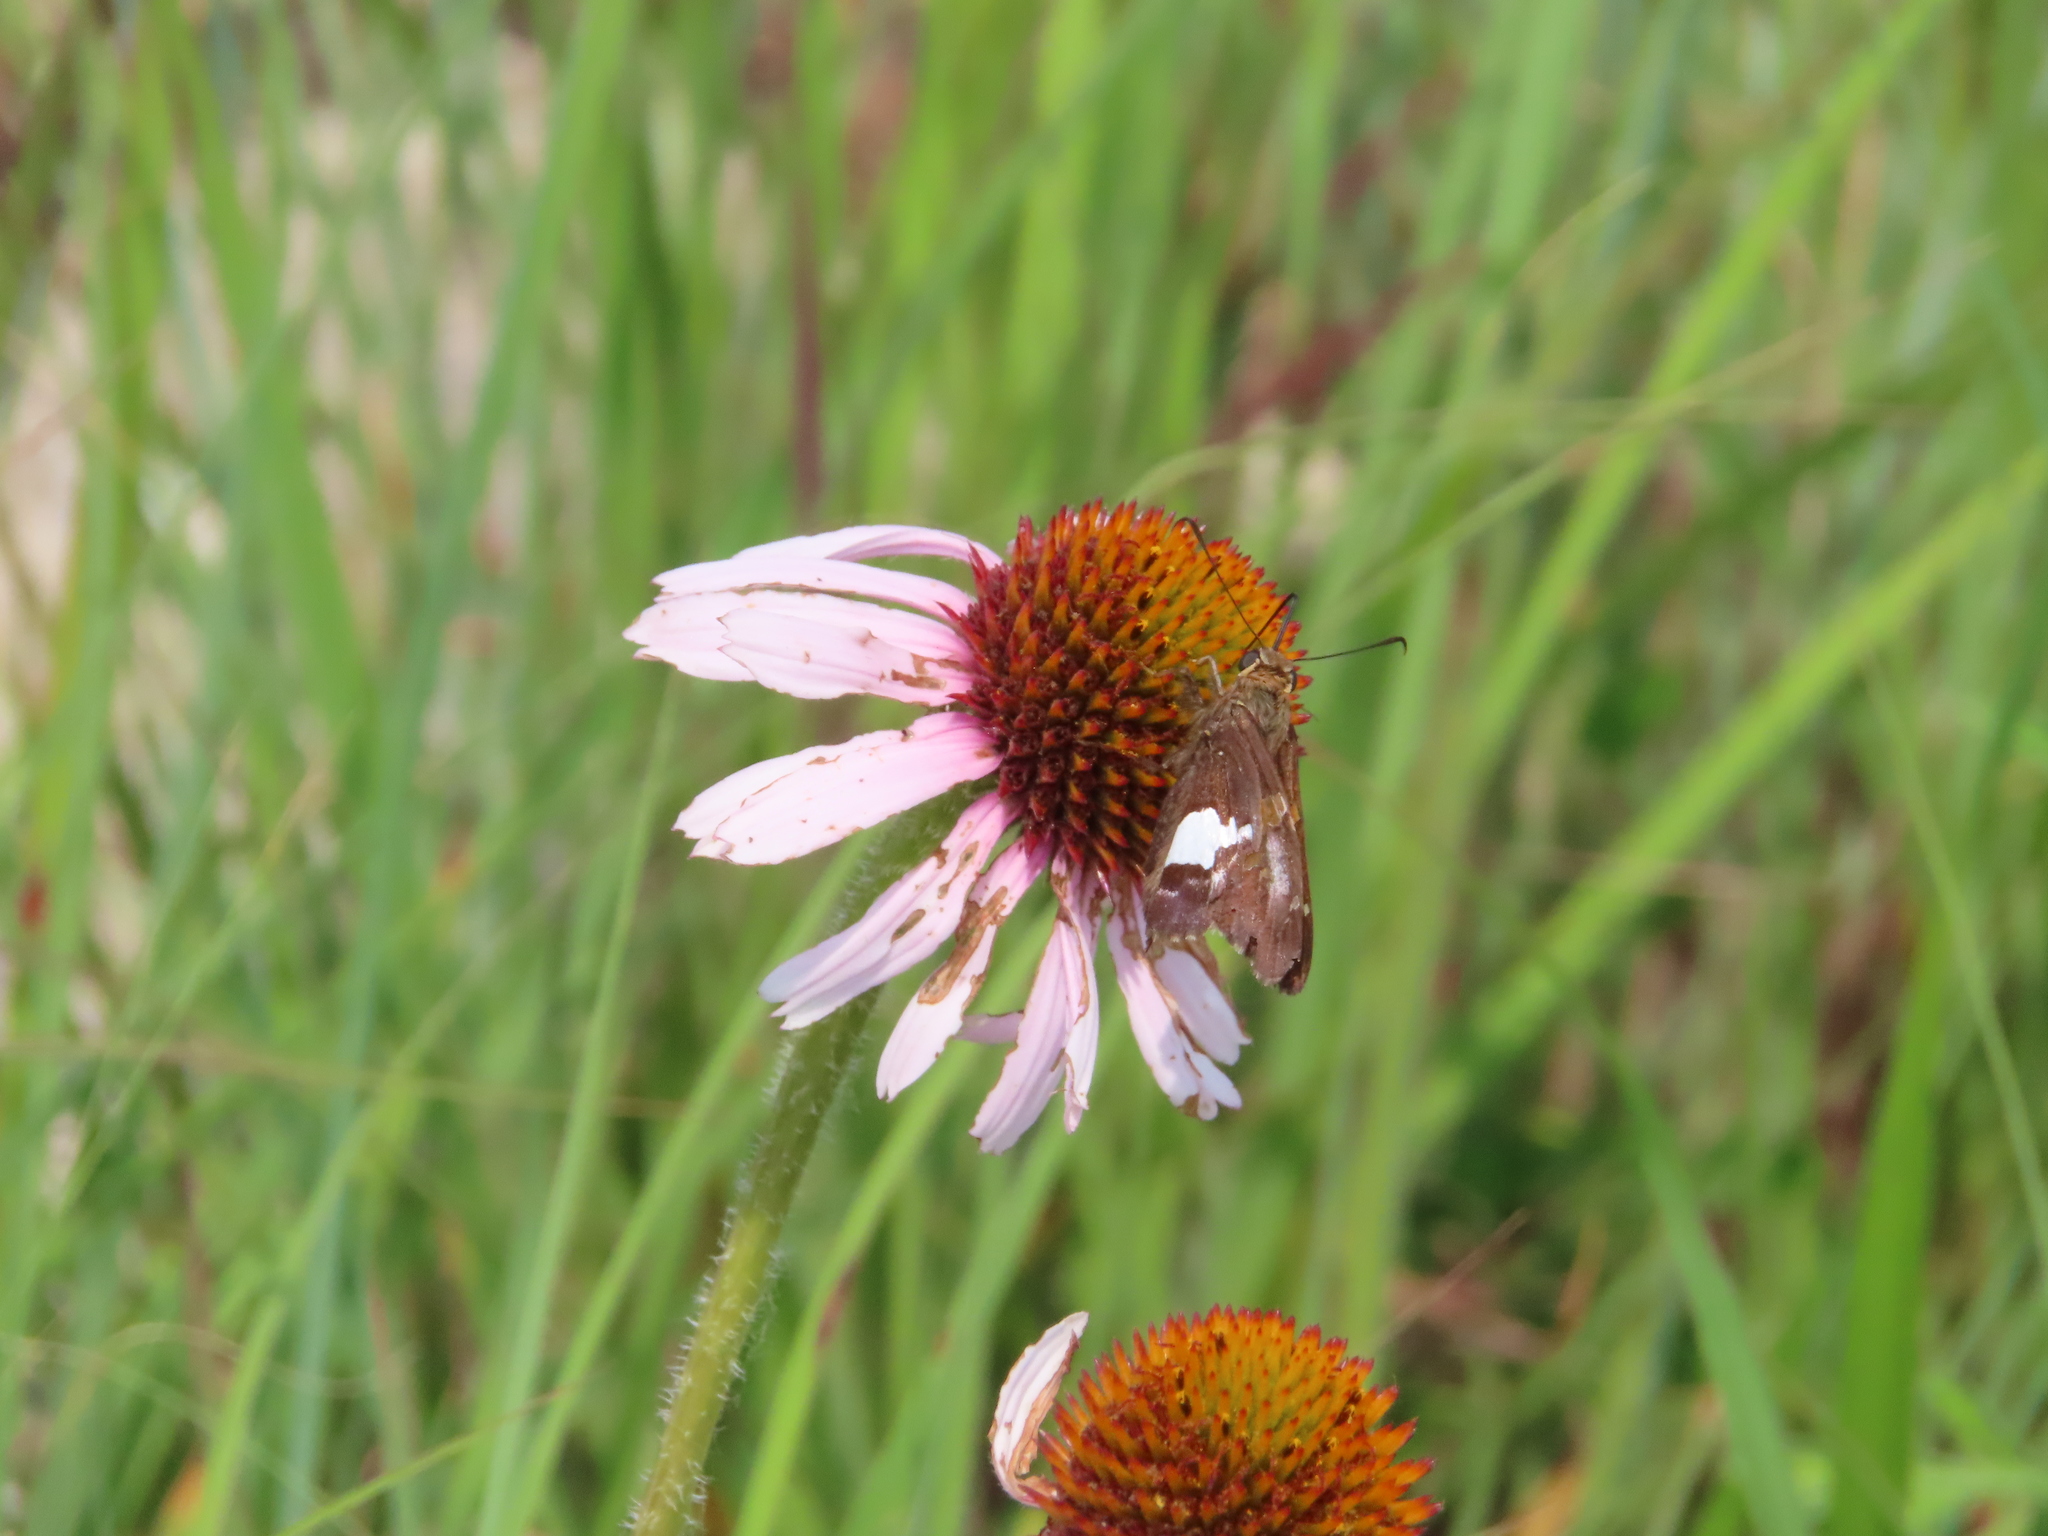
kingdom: Animalia
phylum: Arthropoda
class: Insecta
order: Lepidoptera
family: Hesperiidae
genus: Epargyreus
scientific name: Epargyreus clarus
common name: Silver-spotted skipper
